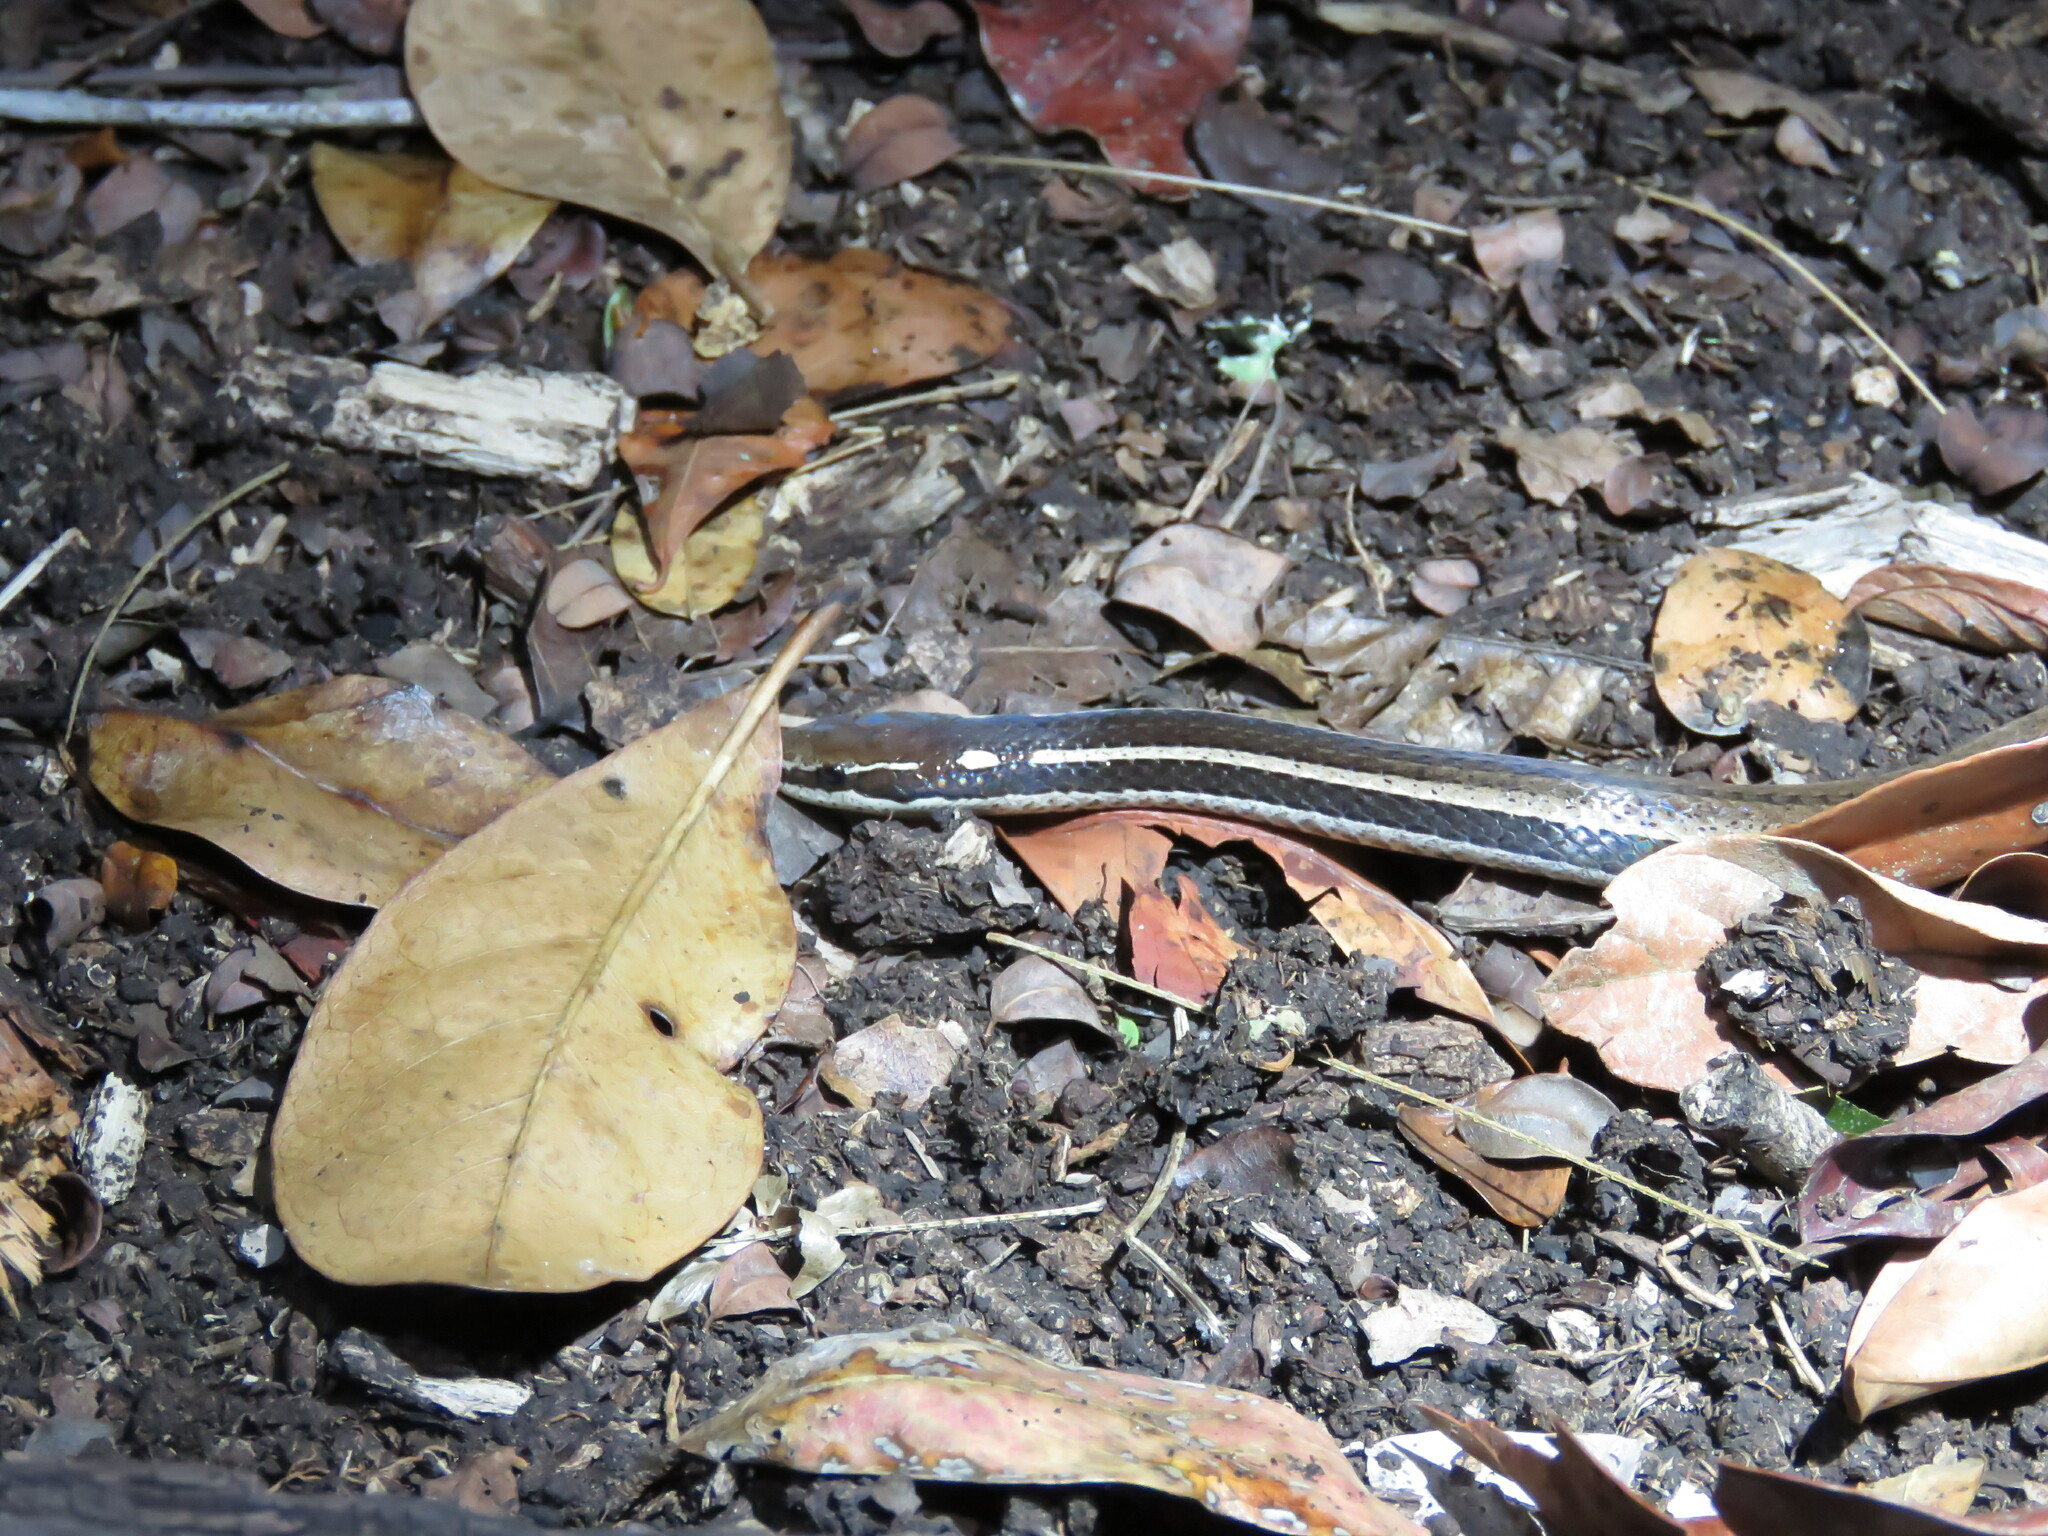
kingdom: Animalia
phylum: Chordata
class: Squamata
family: Colubridae
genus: Coniophanes
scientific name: Coniophanes imperialis
